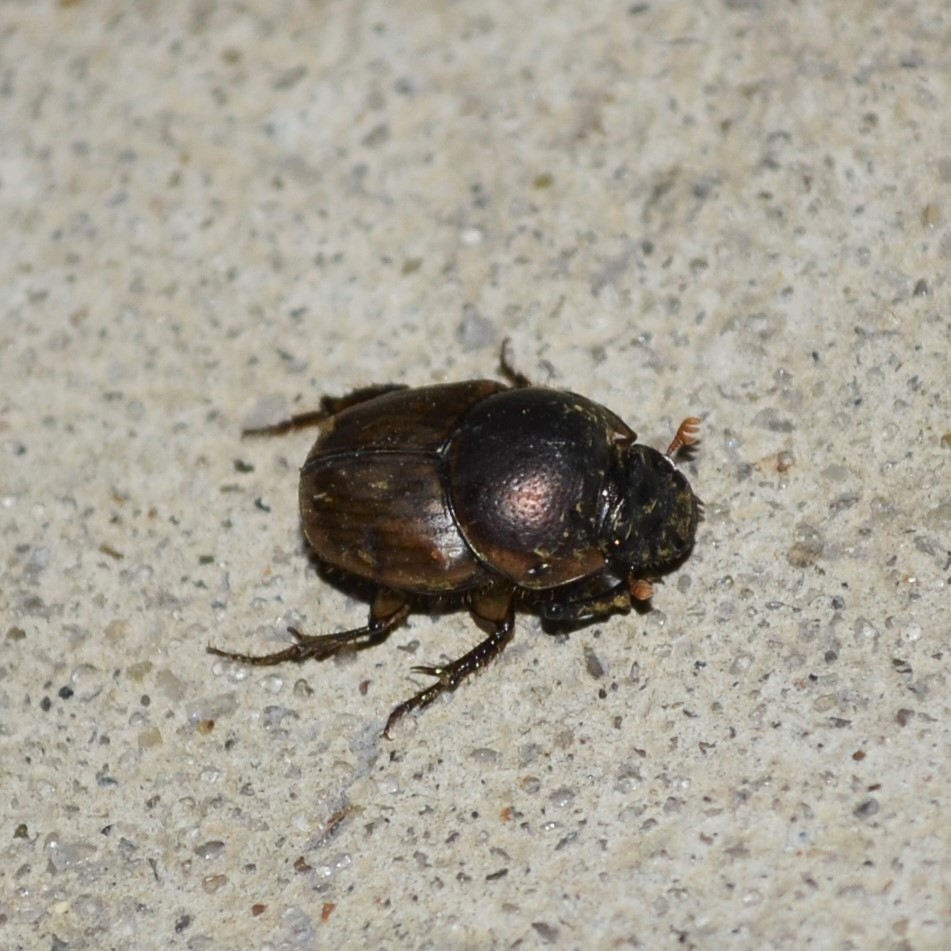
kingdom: Animalia
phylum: Arthropoda
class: Insecta
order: Coleoptera
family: Scarabaeidae
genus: Digitonthophagus
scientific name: Digitonthophagus gazella
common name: Brown dung beetle
